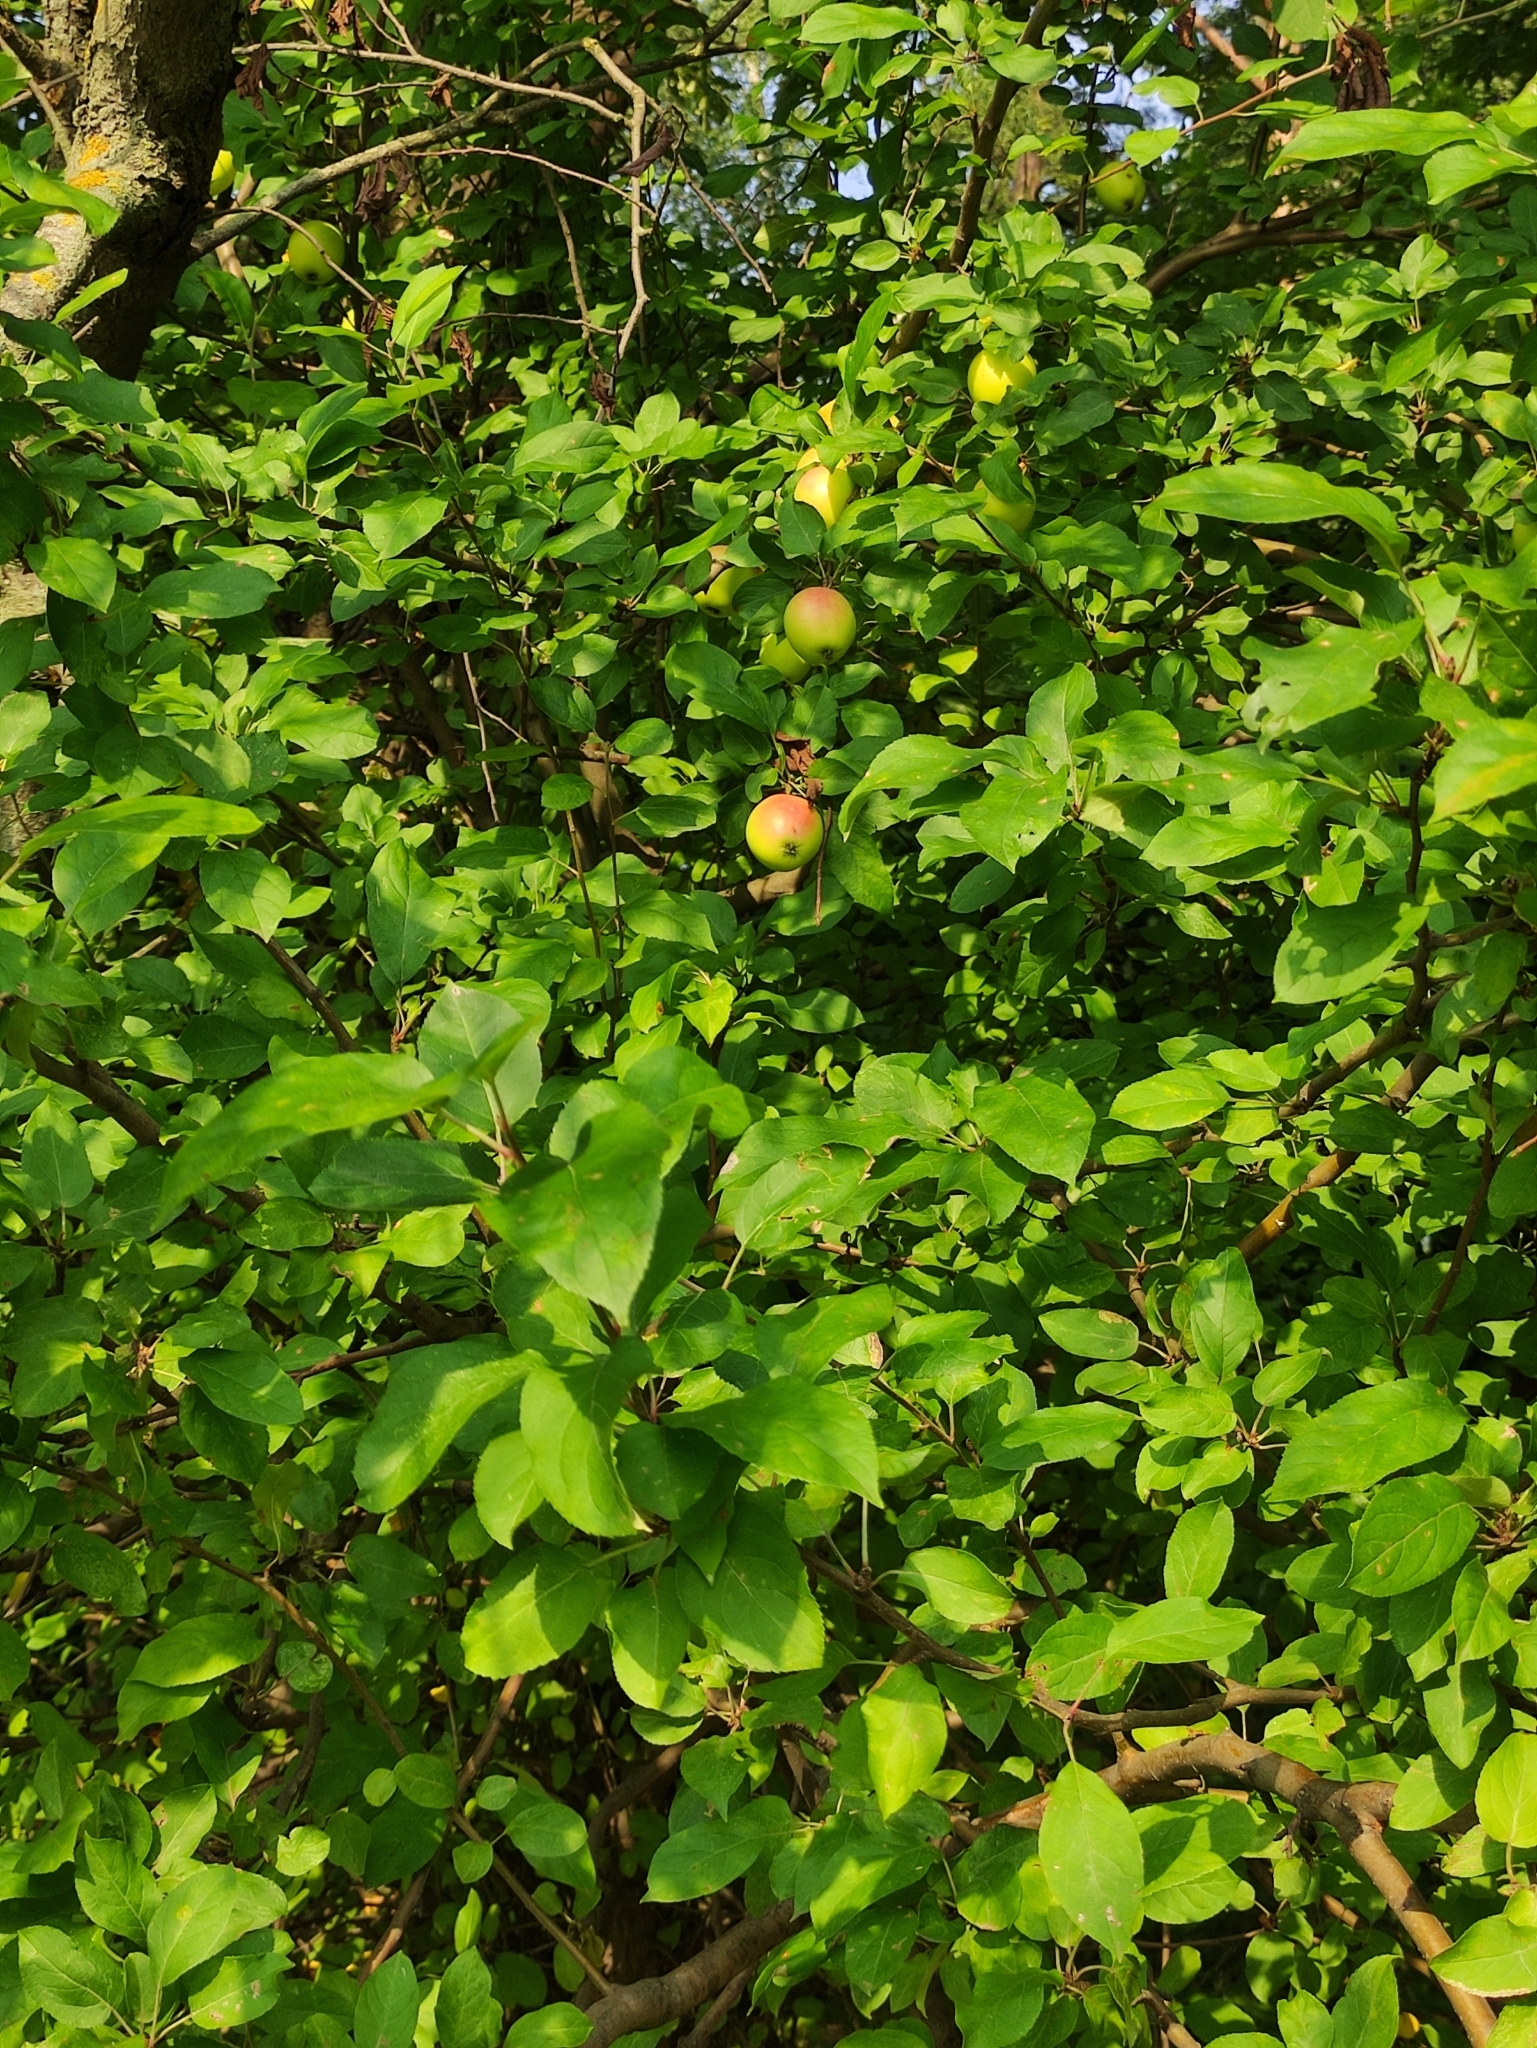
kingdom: Plantae
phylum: Tracheophyta
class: Magnoliopsida
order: Rosales
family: Rosaceae
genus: Malus
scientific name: Malus domestica
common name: Apple
